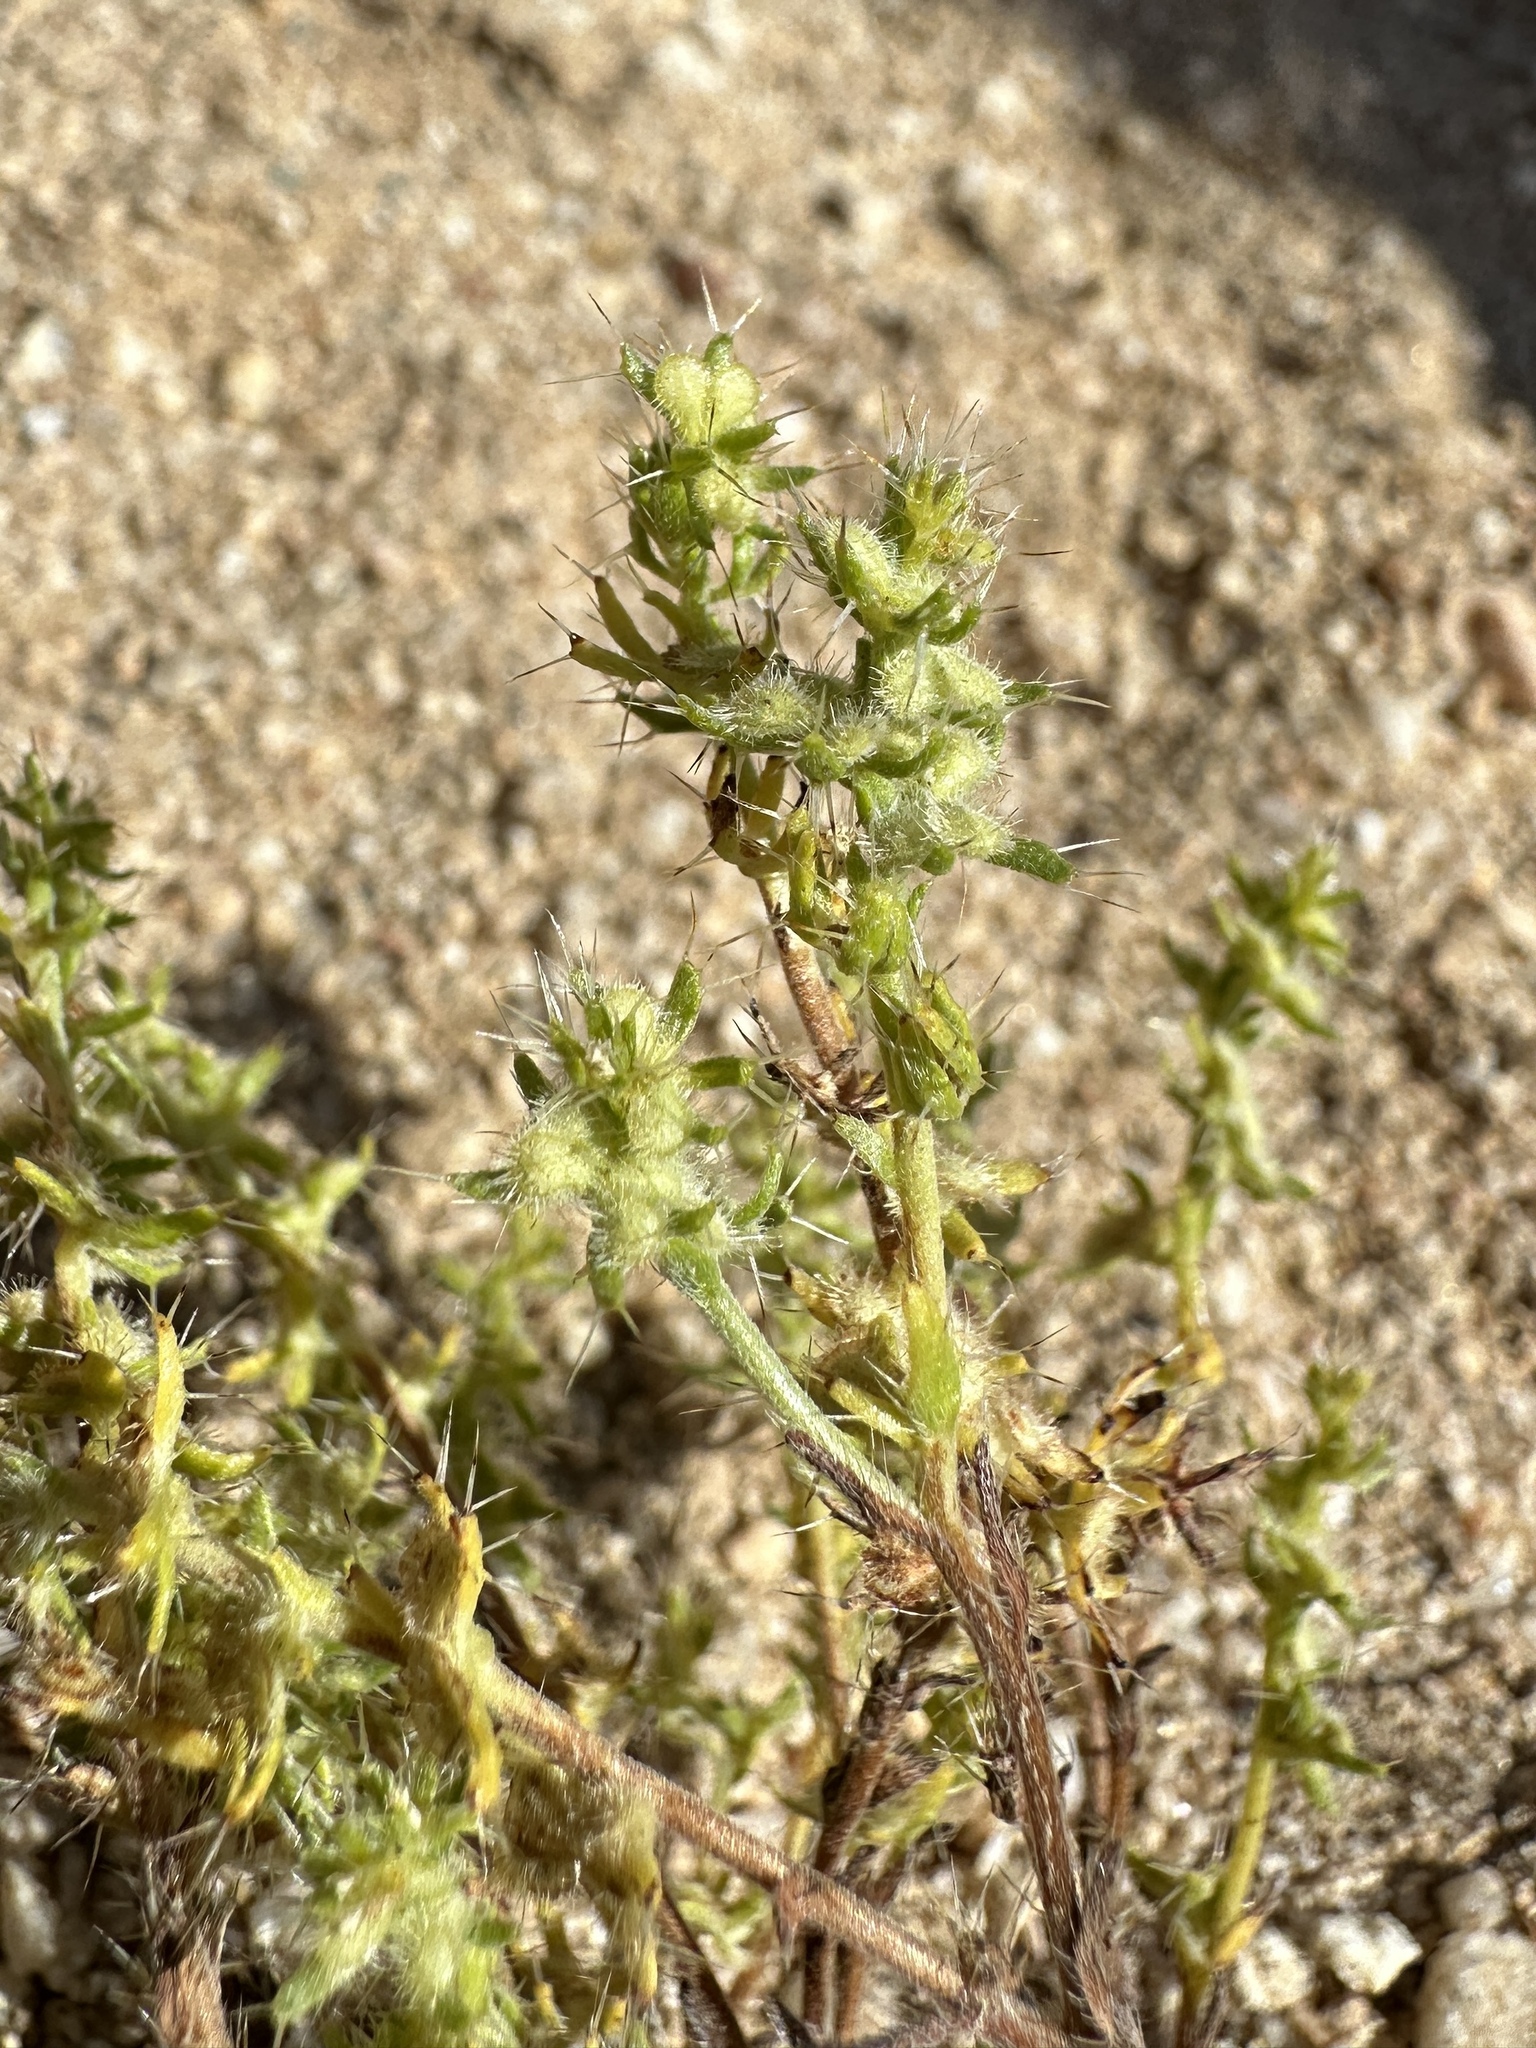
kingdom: Plantae
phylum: Tracheophyta
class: Magnoliopsida
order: Boraginales
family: Boraginaceae
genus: Pectocarya
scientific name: Pectocarya setosa
